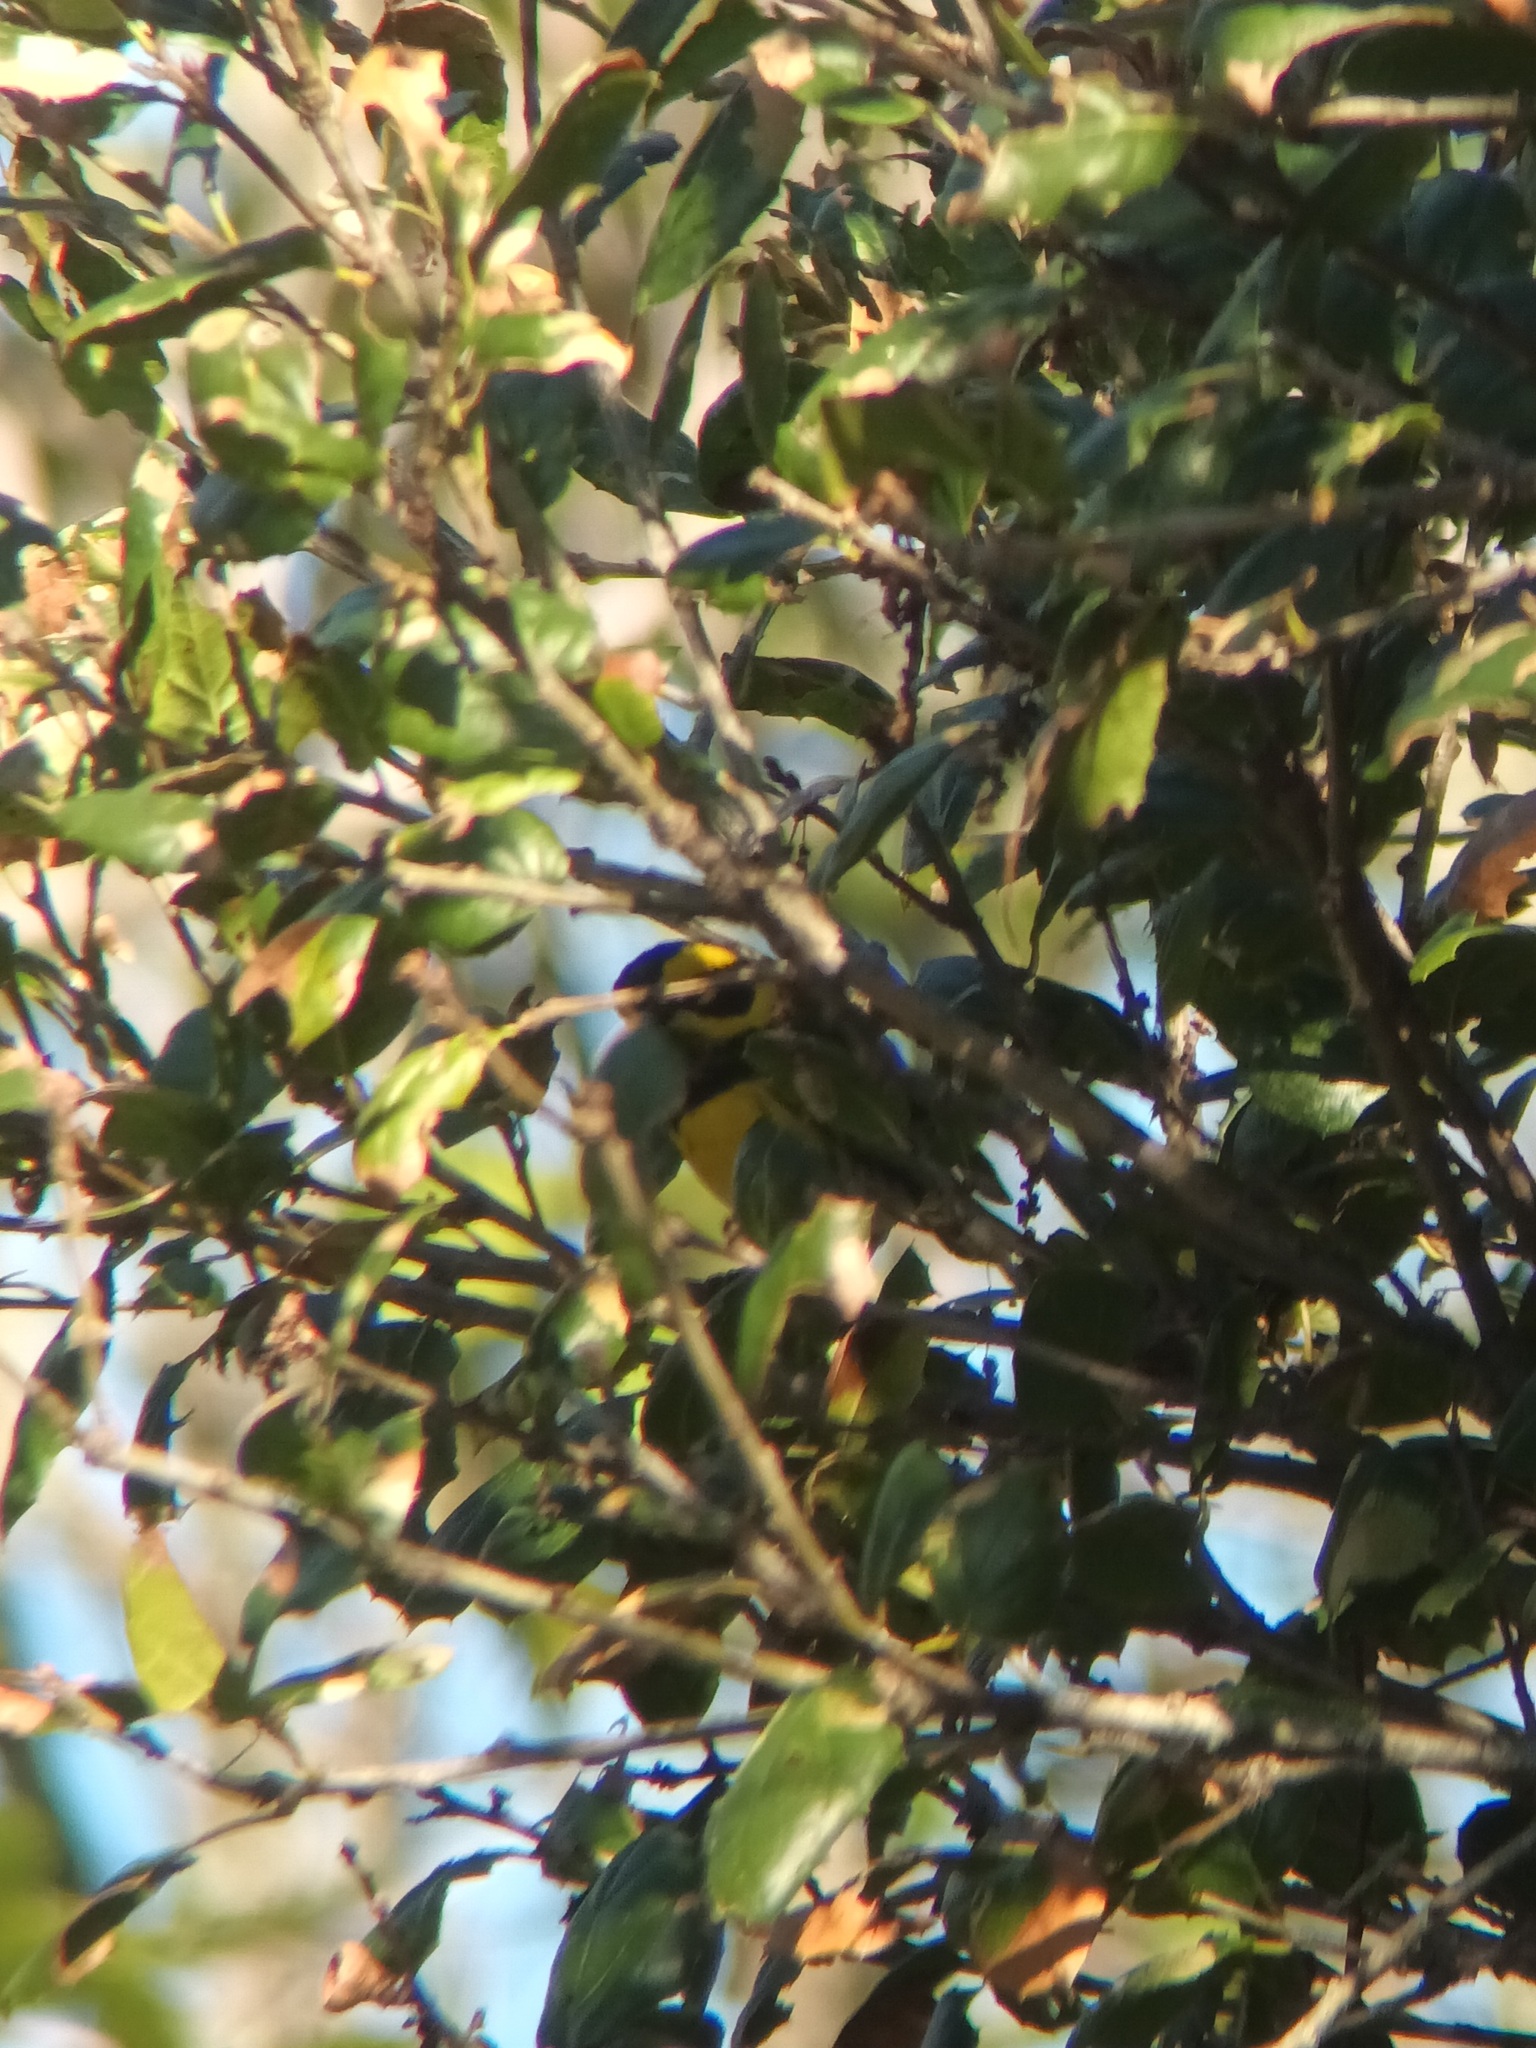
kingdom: Animalia
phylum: Chordata
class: Aves
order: Passeriformes
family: Parulidae
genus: Setophaga
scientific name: Setophaga townsendi
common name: Townsend's warbler
